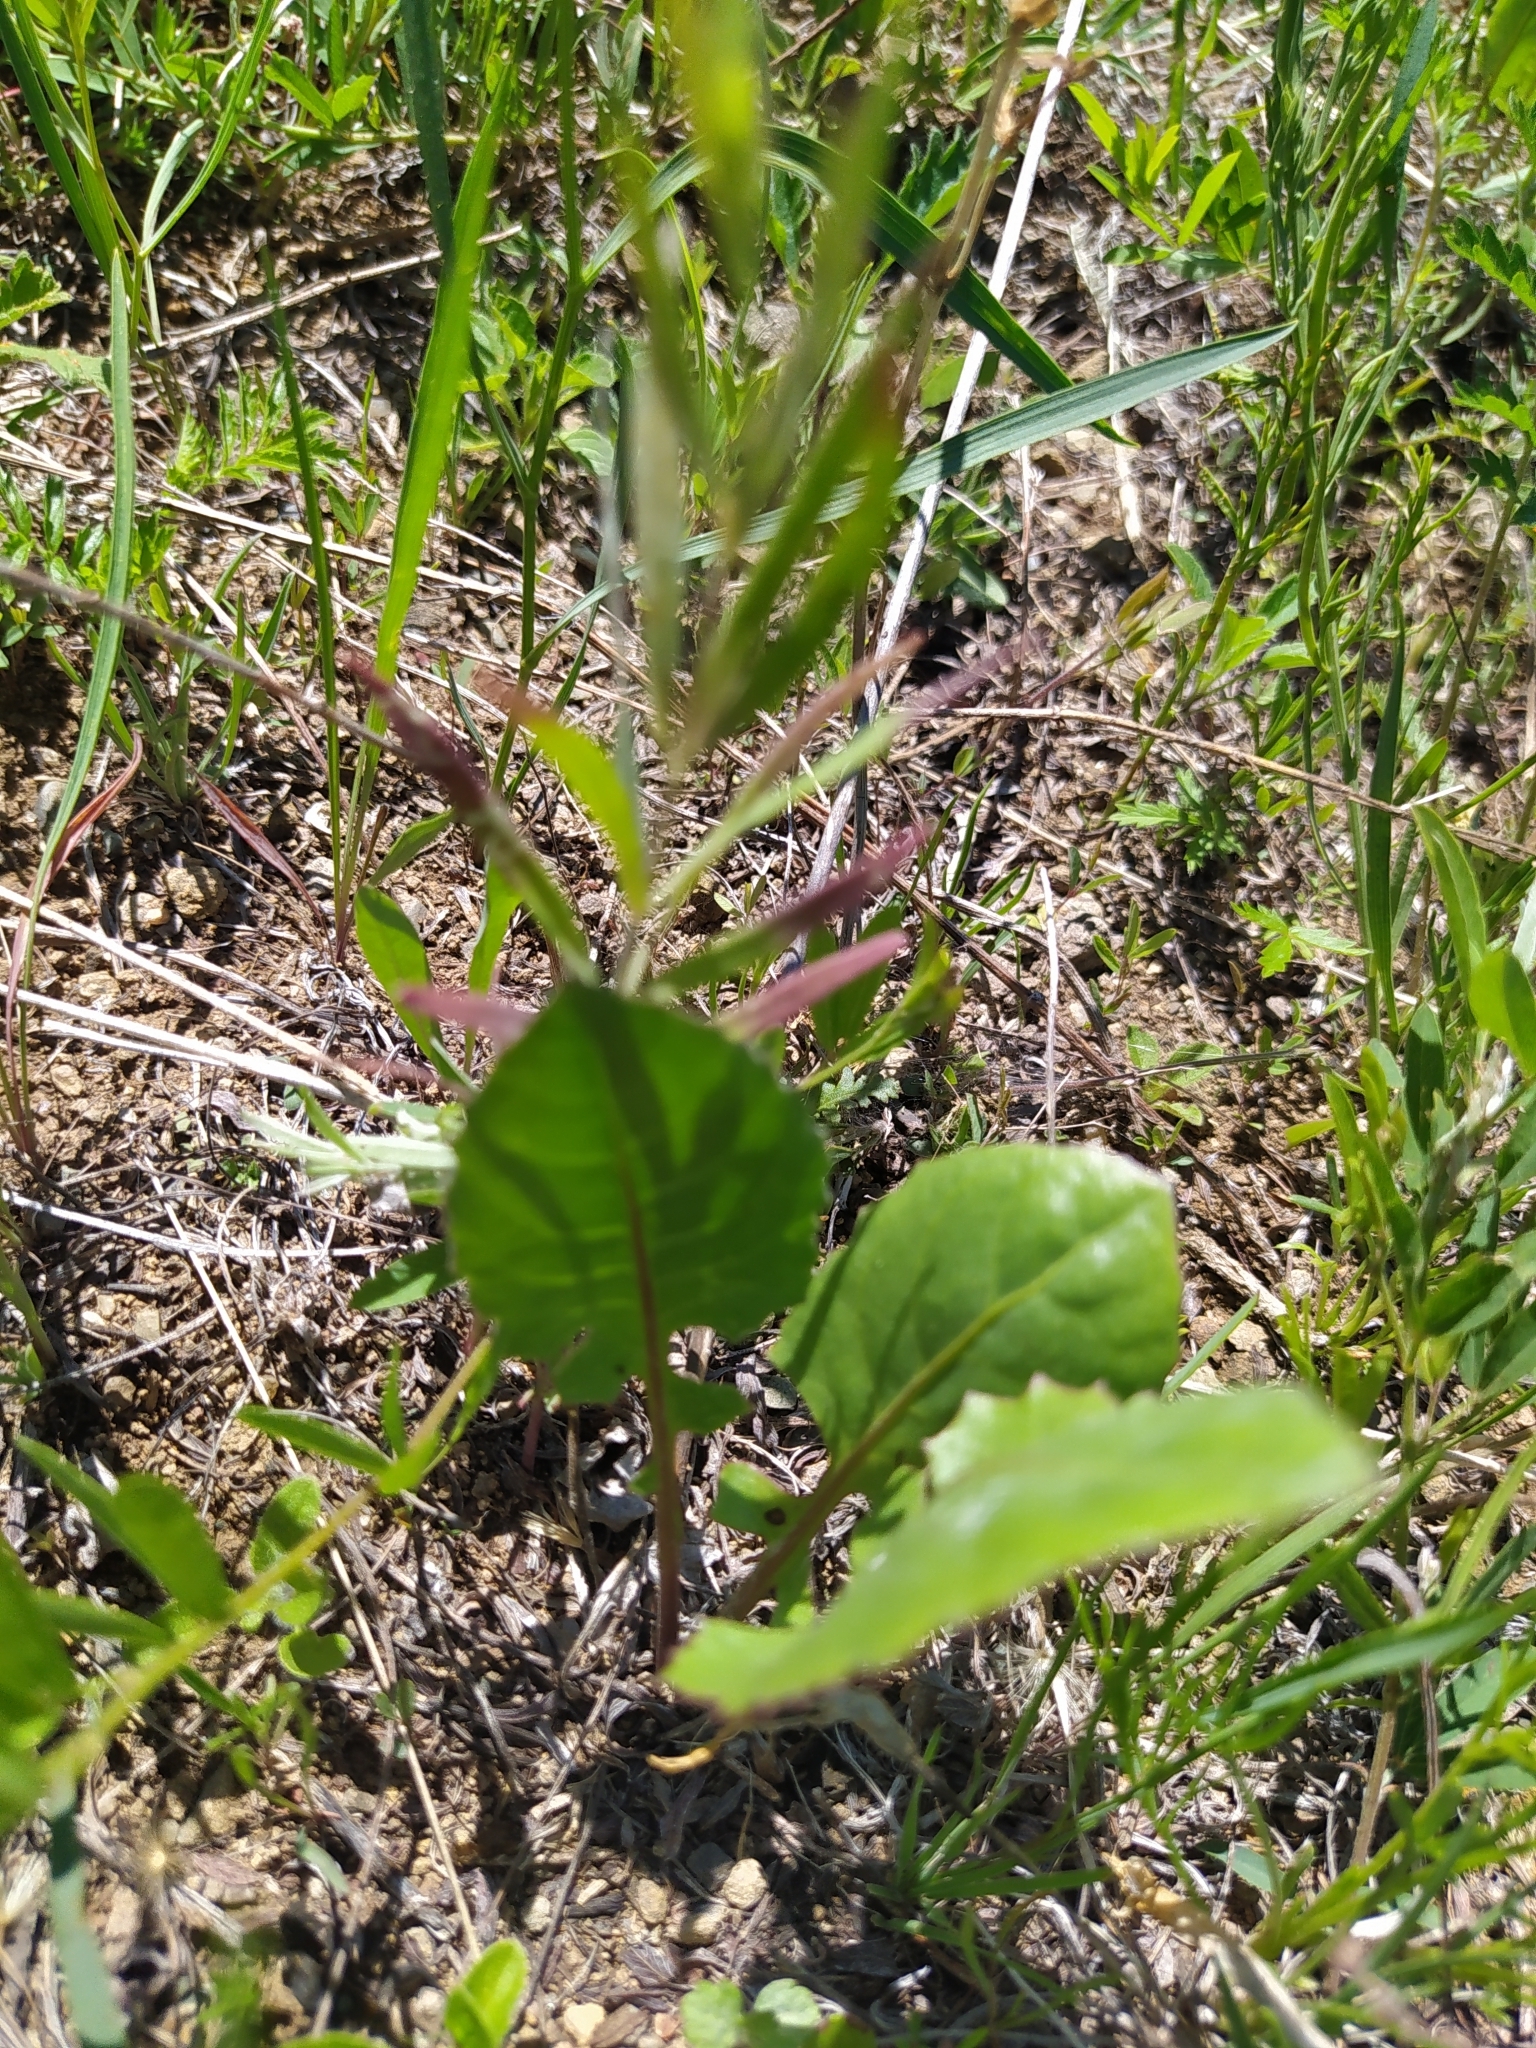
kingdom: Plantae
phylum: Tracheophyta
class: Magnoliopsida
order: Asterales
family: Asteraceae
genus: Leibnitzia
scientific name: Leibnitzia anandria
